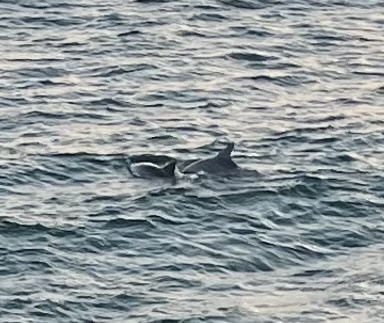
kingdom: Animalia
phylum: Chordata
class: Mammalia
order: Cetacea
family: Delphinidae
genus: Tursiops
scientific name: Tursiops truncatus
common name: Bottlenose dolphin
